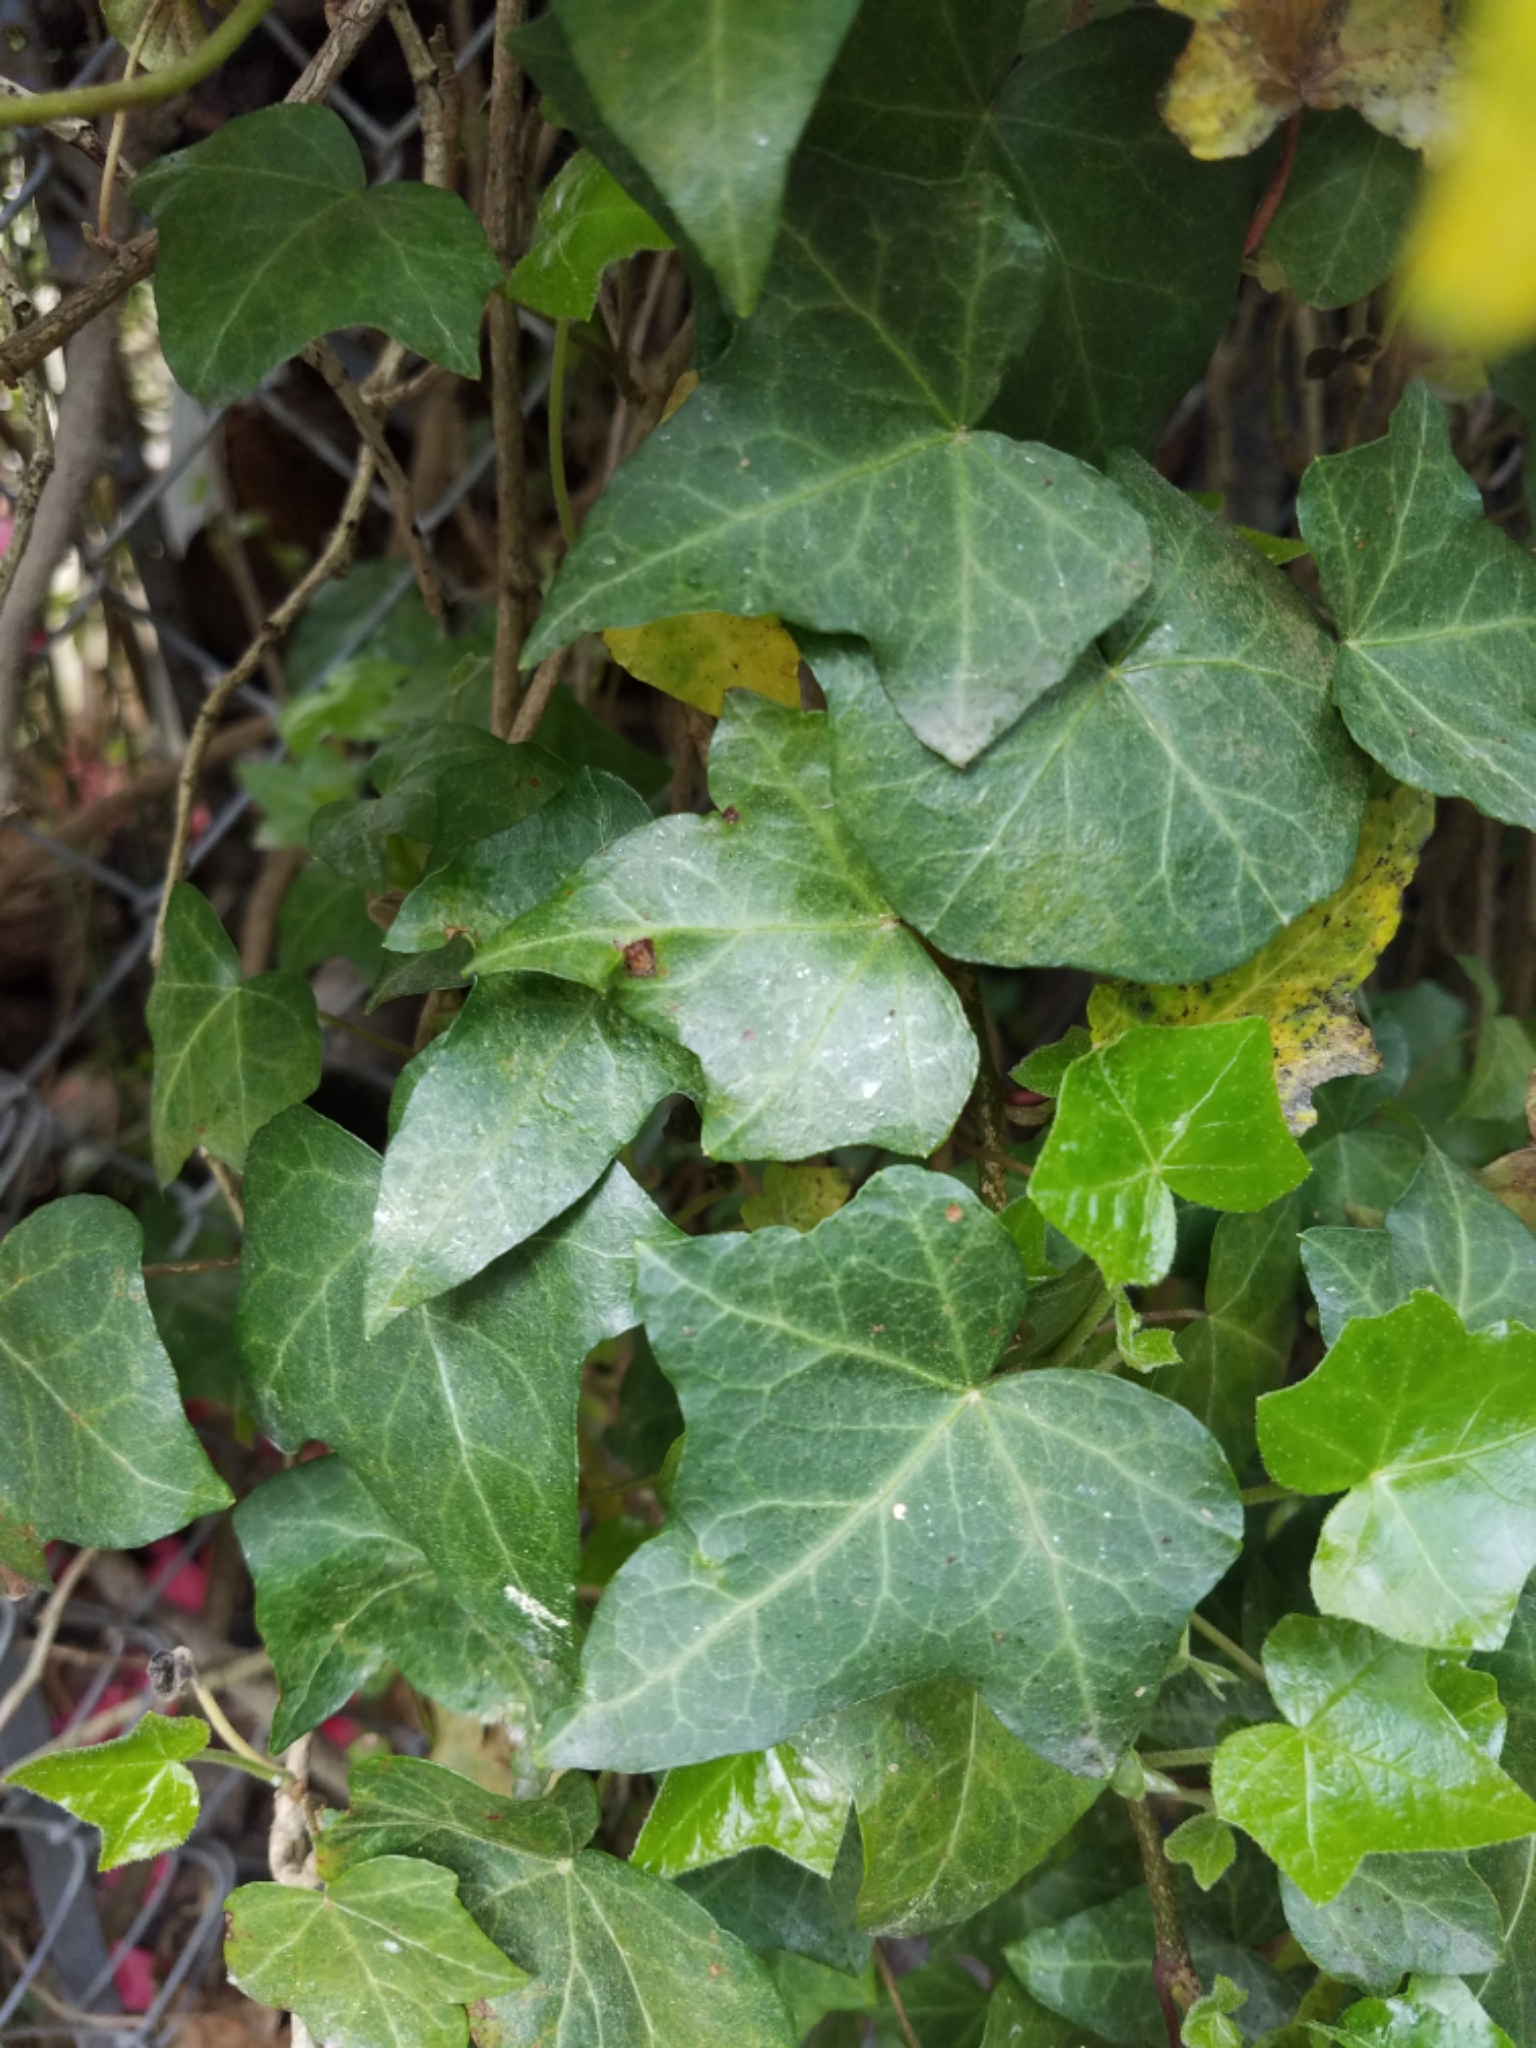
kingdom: Plantae
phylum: Tracheophyta
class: Magnoliopsida
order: Apiales
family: Araliaceae
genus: Hedera
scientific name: Hedera helix
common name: Ivy
